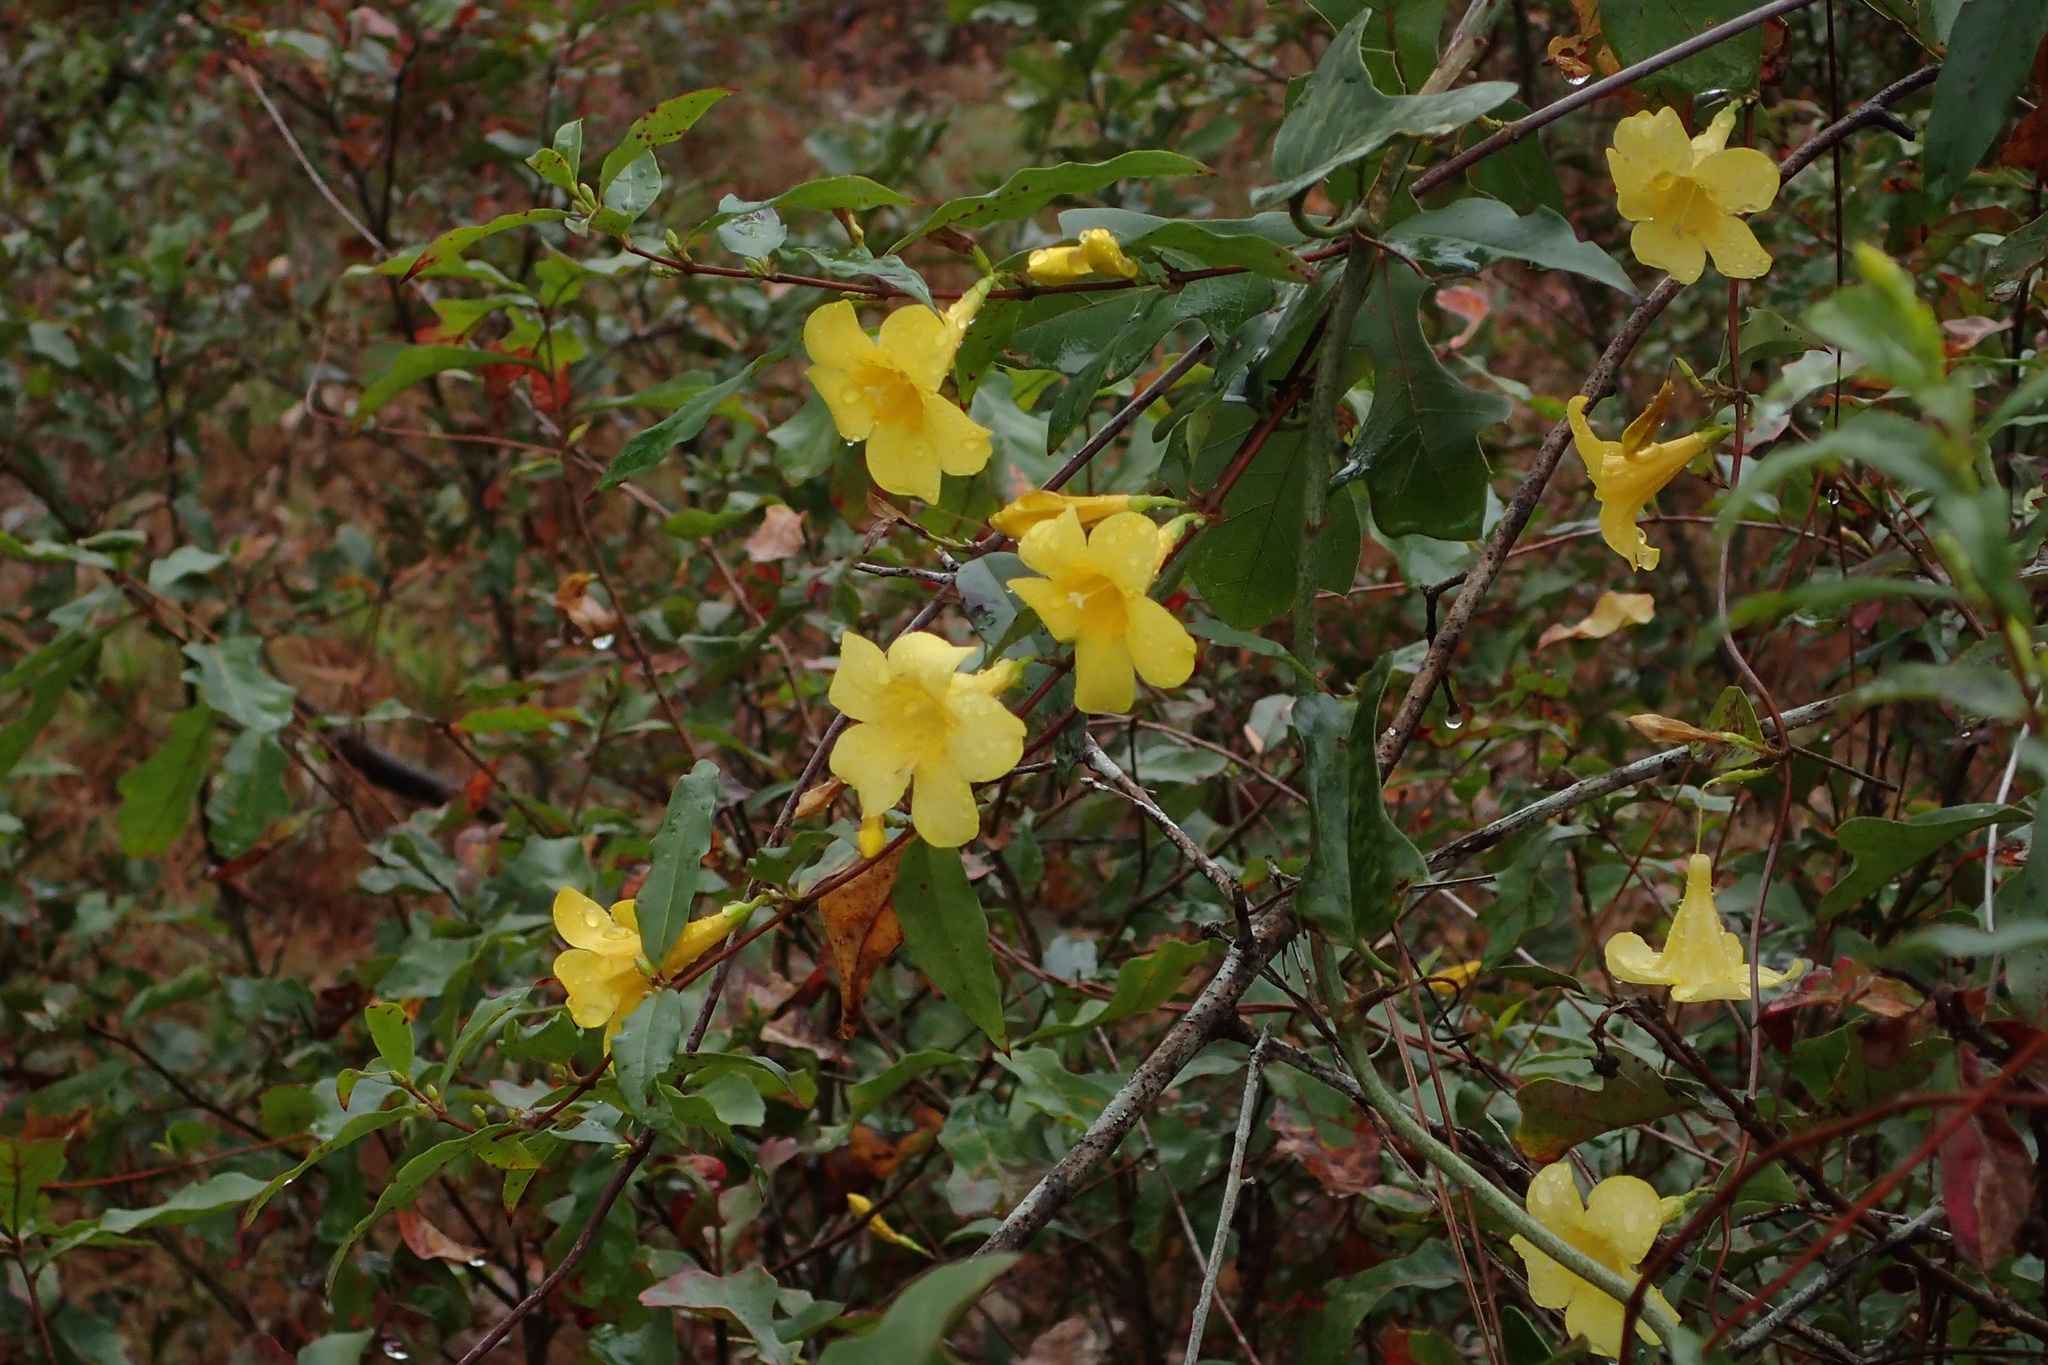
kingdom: Plantae
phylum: Tracheophyta
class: Magnoliopsida
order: Gentianales
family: Gelsemiaceae
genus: Gelsemium
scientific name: Gelsemium sempervirens
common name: Carolina-jasmine
